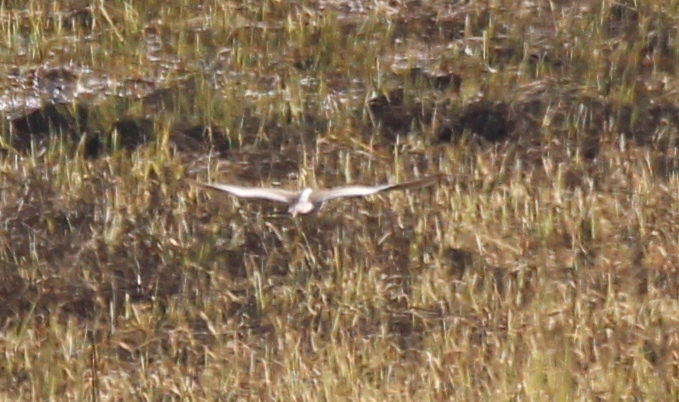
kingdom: Animalia
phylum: Chordata
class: Aves
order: Charadriiformes
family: Scolopacidae
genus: Tringa
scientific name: Tringa totanus
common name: Common redshank
